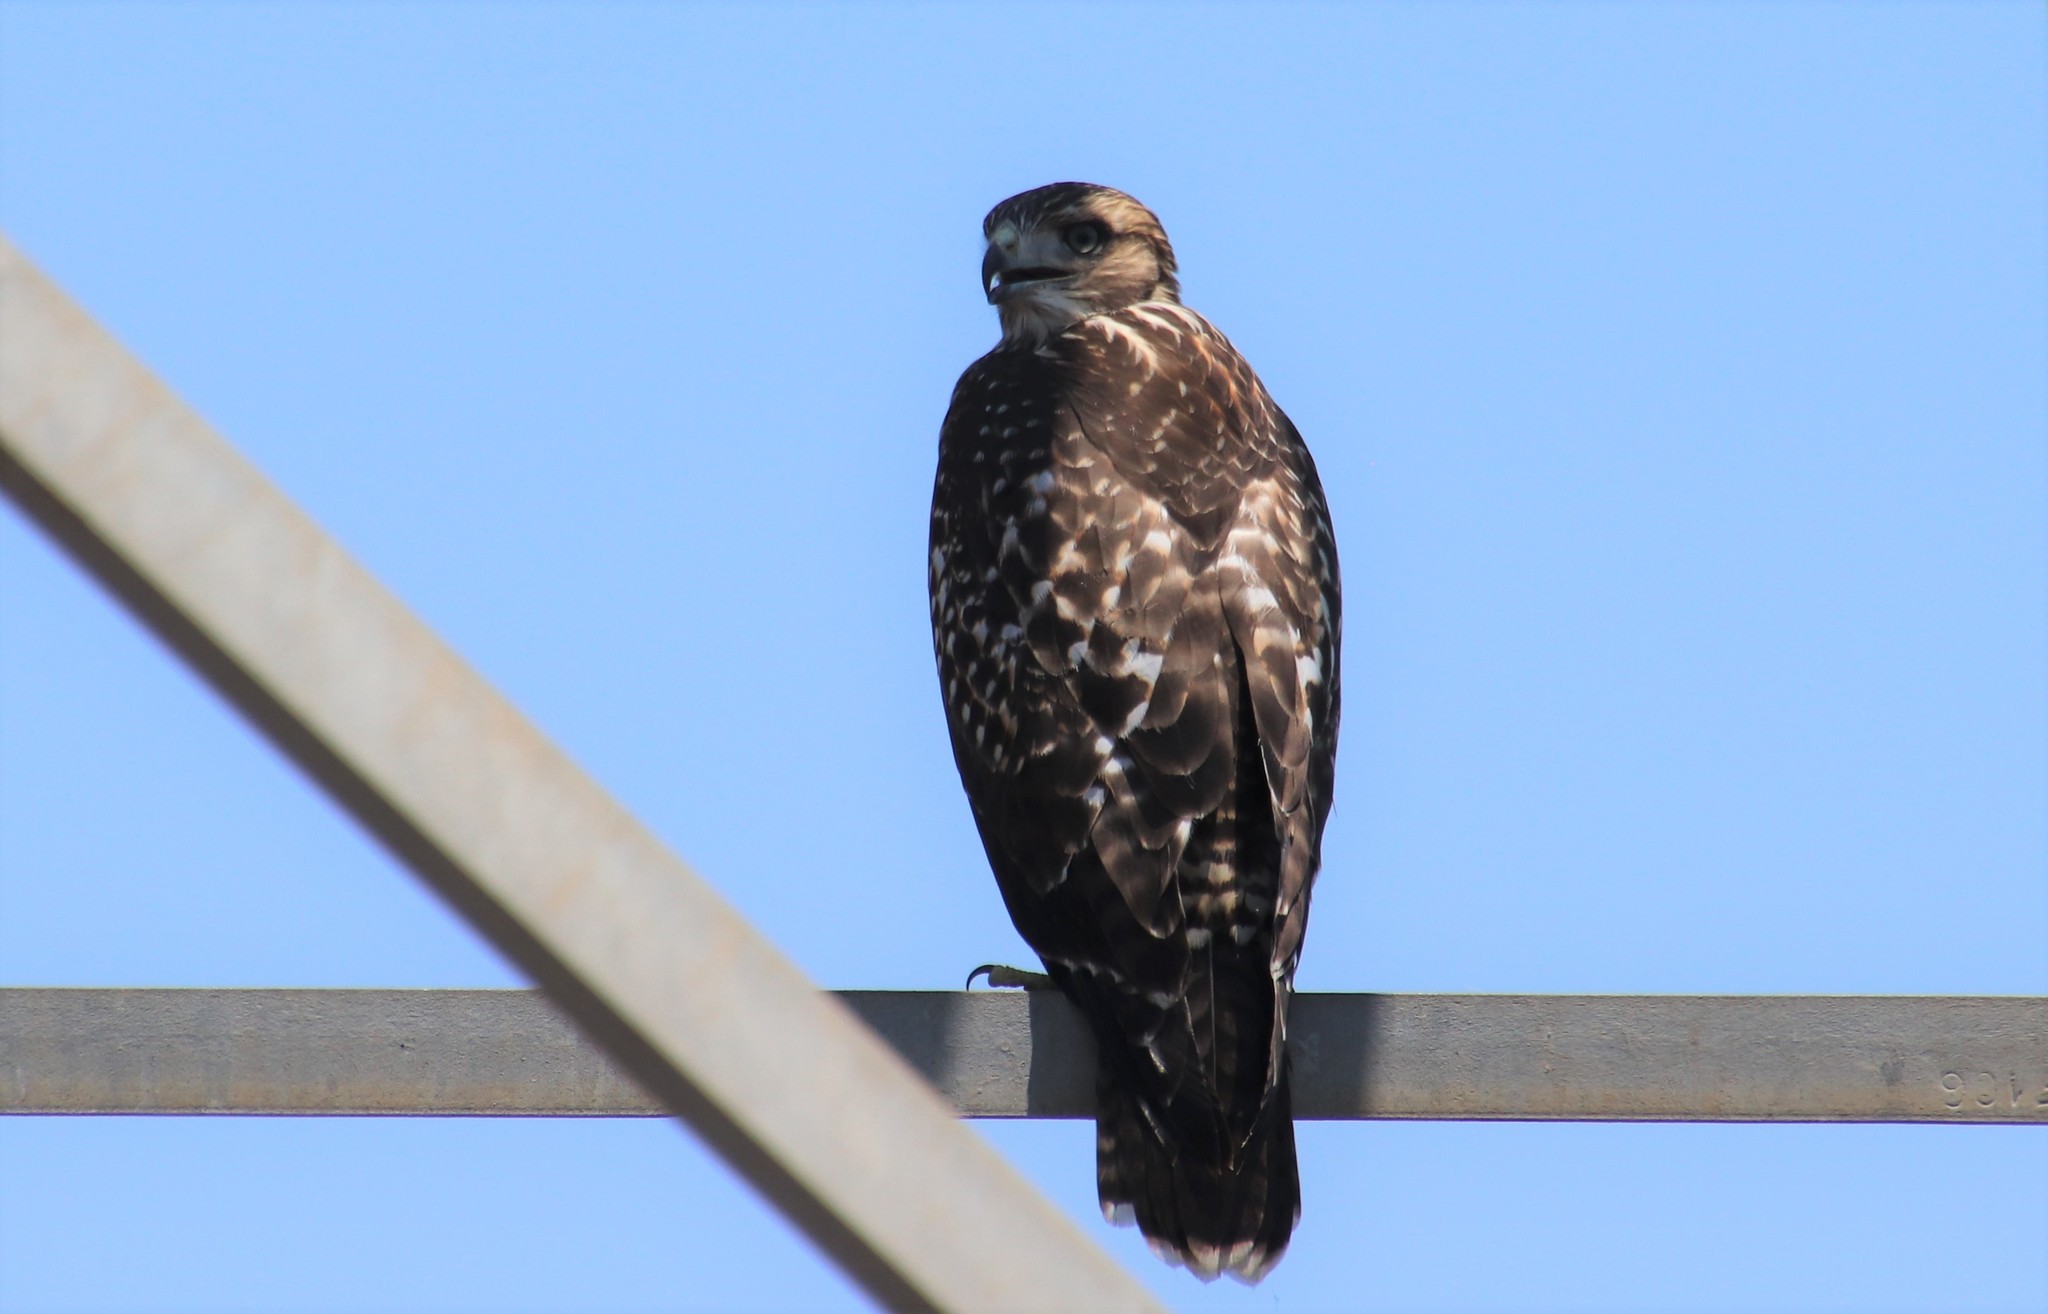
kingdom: Animalia
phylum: Chordata
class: Aves
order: Accipitriformes
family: Accipitridae
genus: Buteo
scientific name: Buteo jamaicensis
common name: Red-tailed hawk
